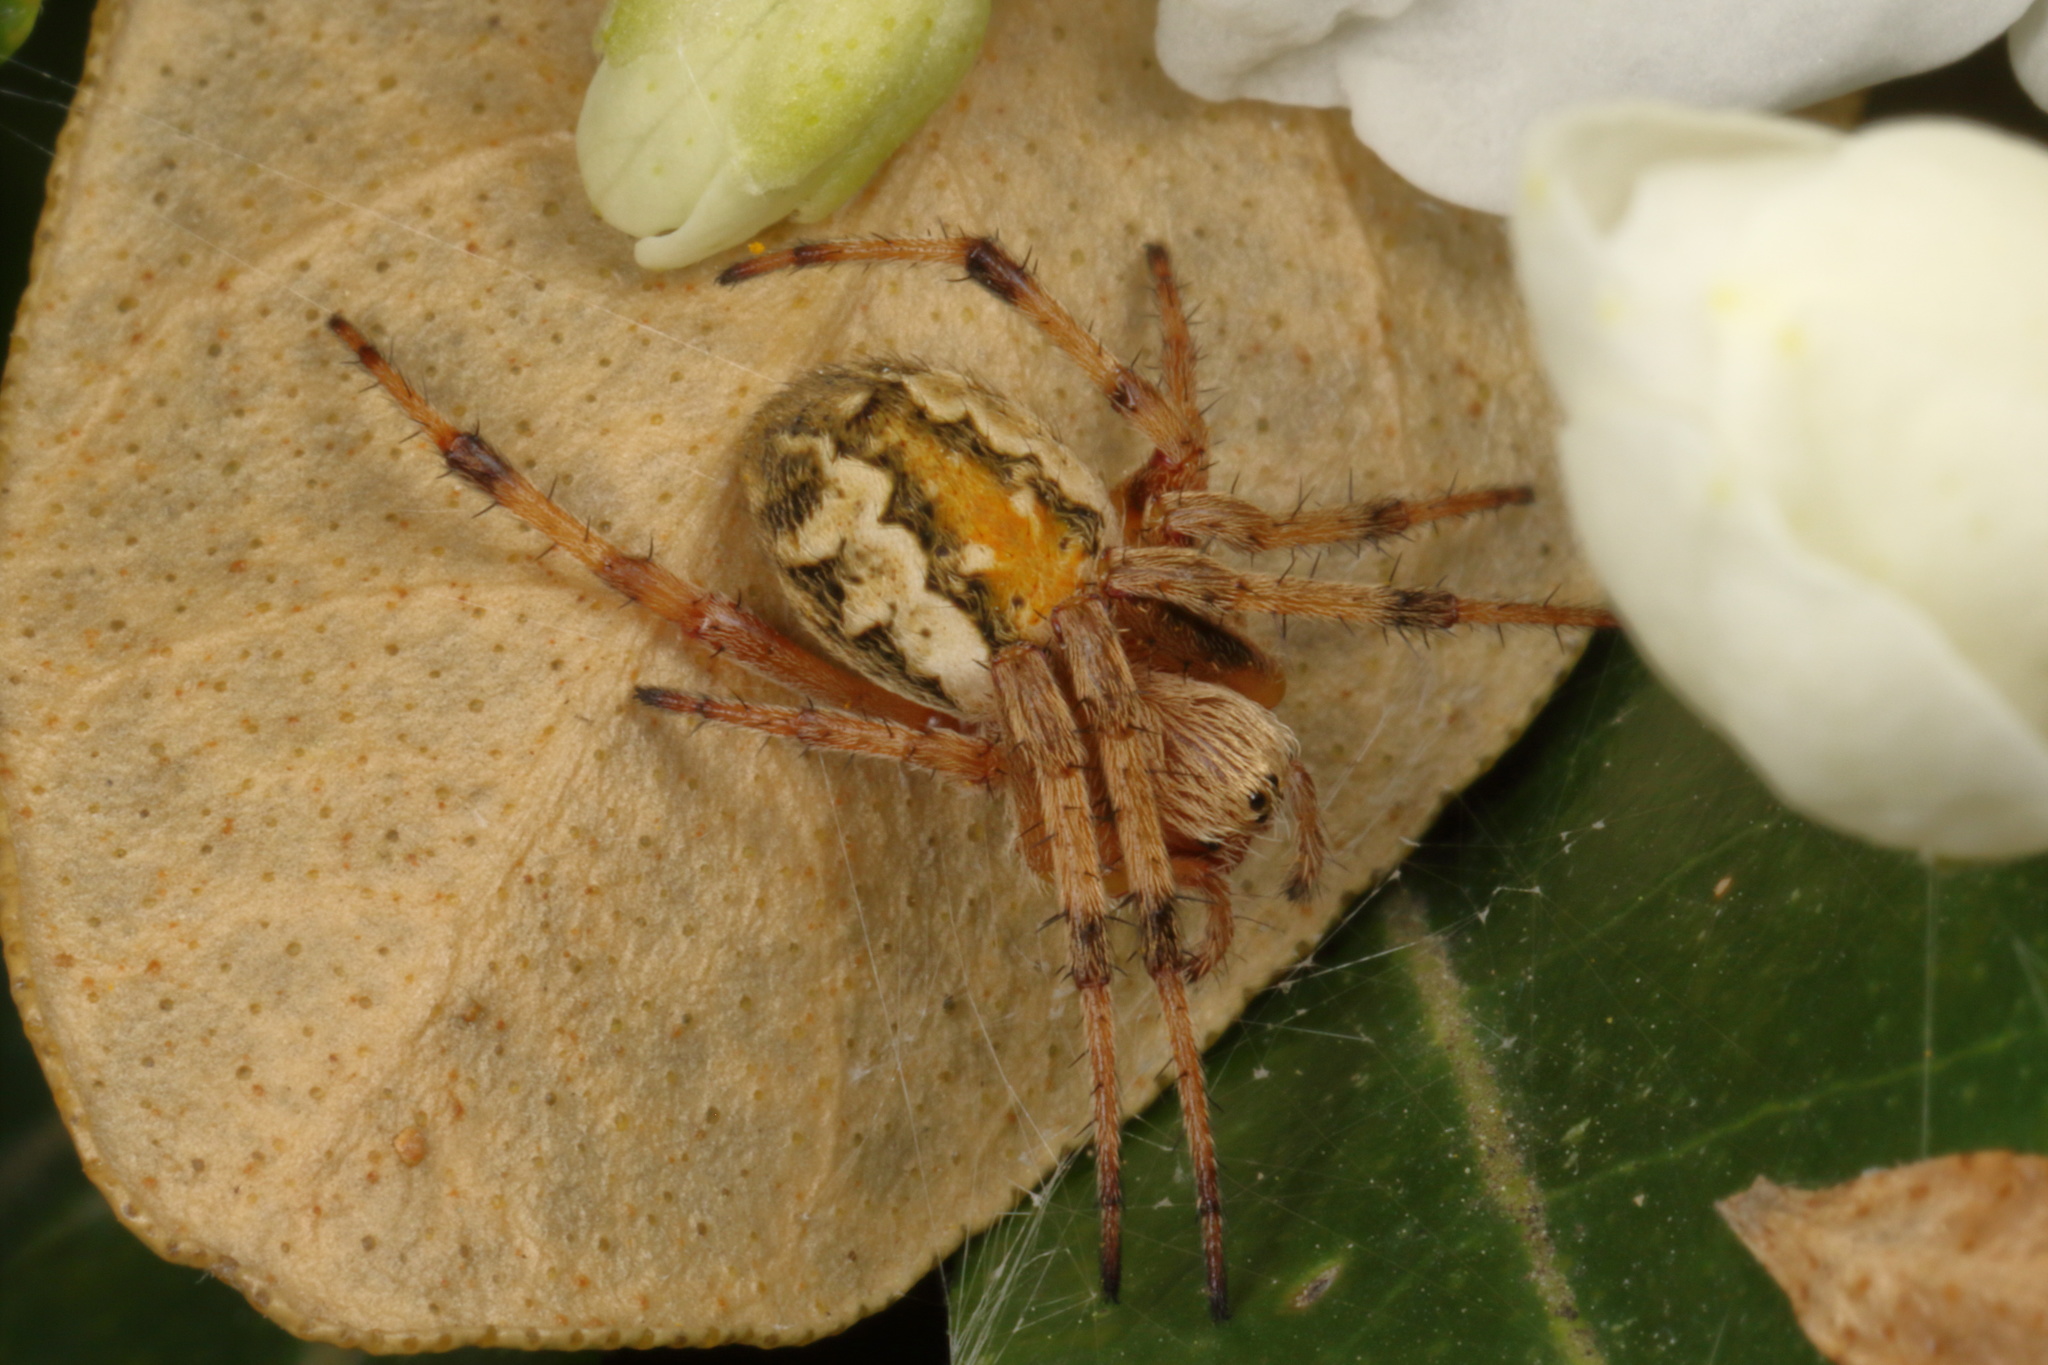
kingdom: Animalia
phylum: Arthropoda
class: Arachnida
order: Araneae
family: Araneidae
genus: Salsa
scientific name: Salsa fuliginata
